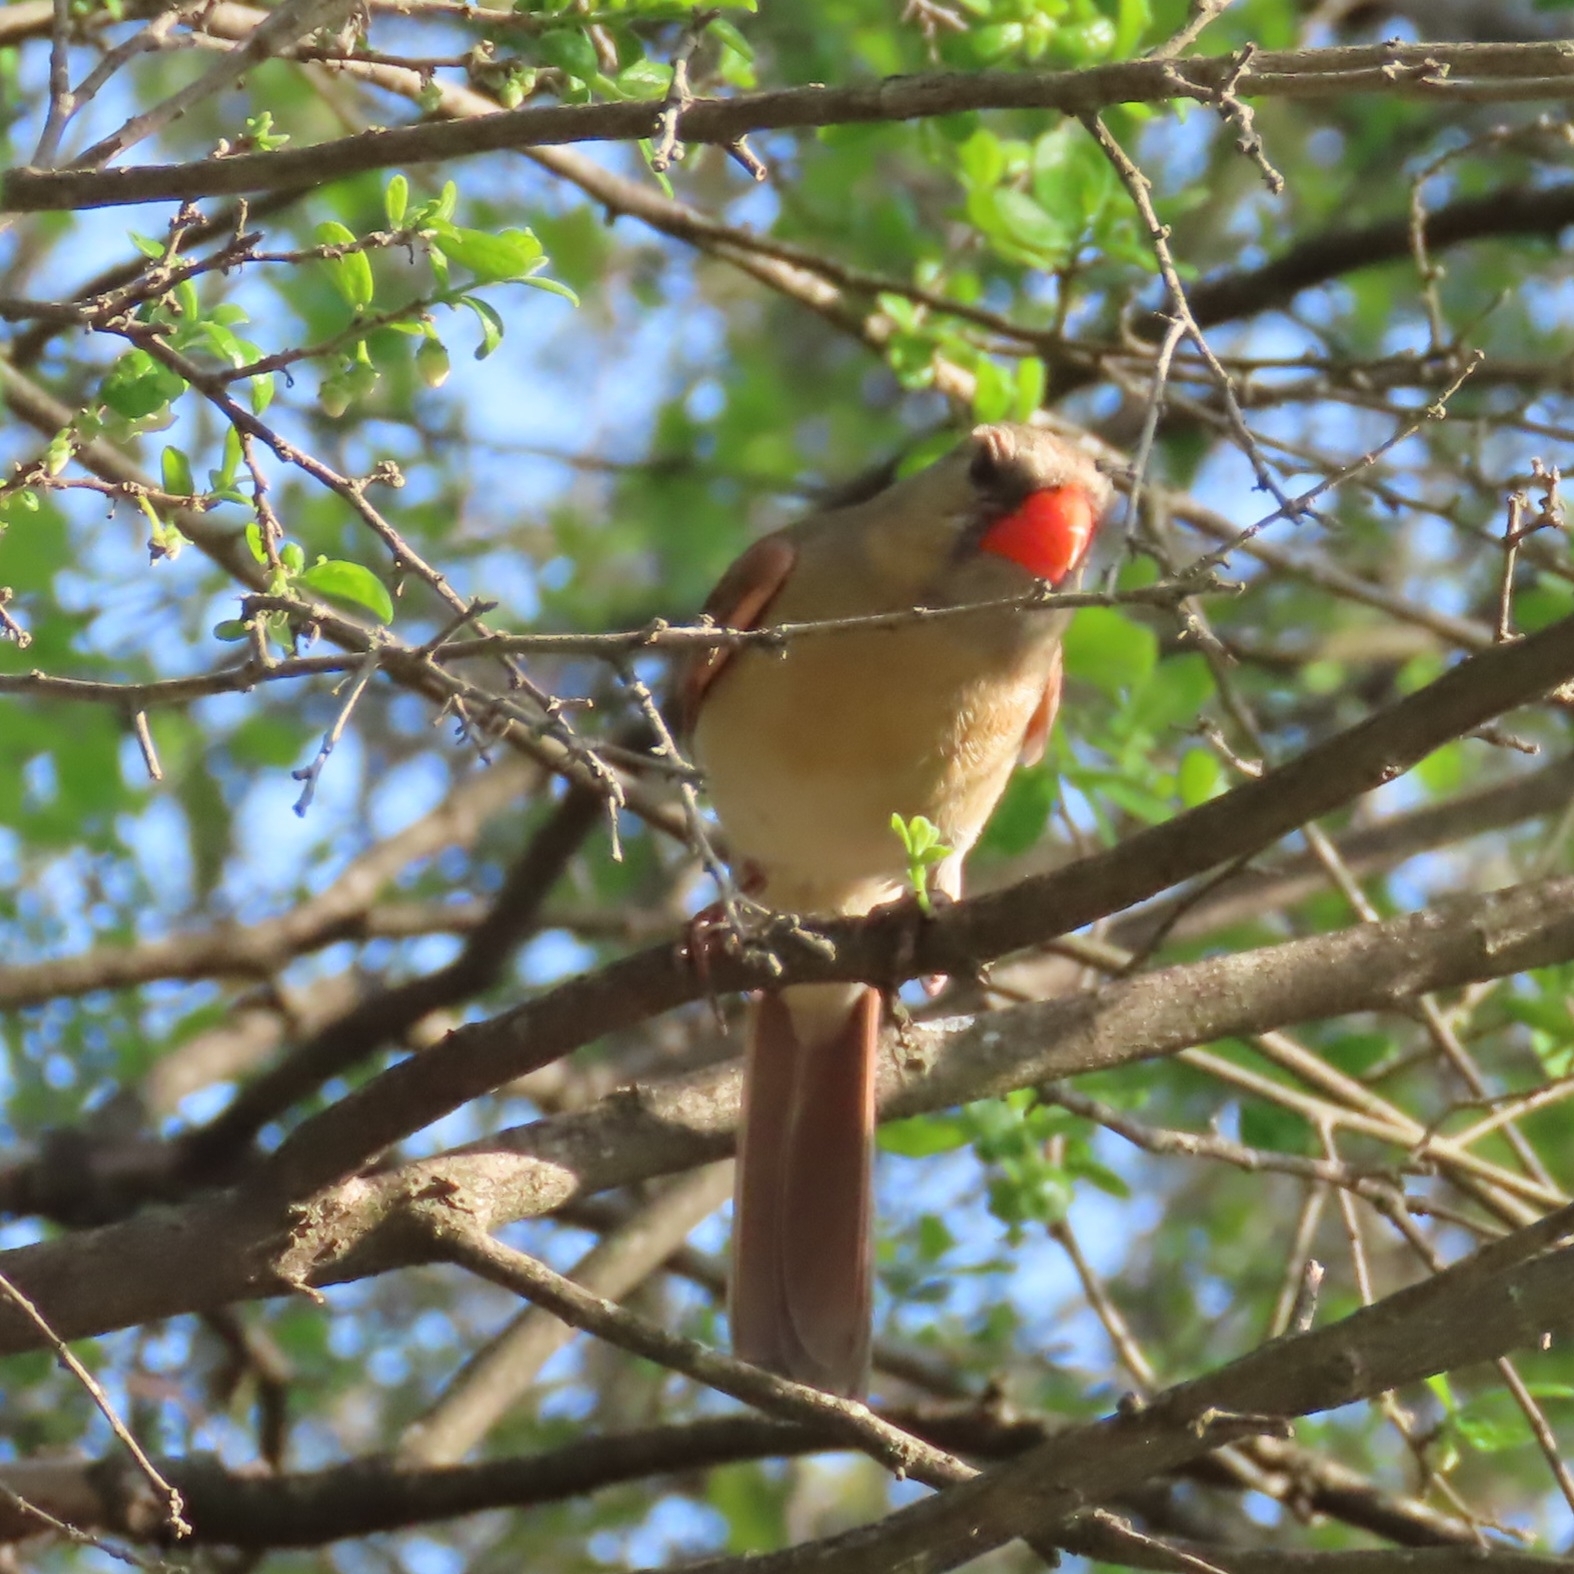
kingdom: Animalia
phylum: Chordata
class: Aves
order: Passeriformes
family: Cardinalidae
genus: Cardinalis
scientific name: Cardinalis cardinalis
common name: Northern cardinal
